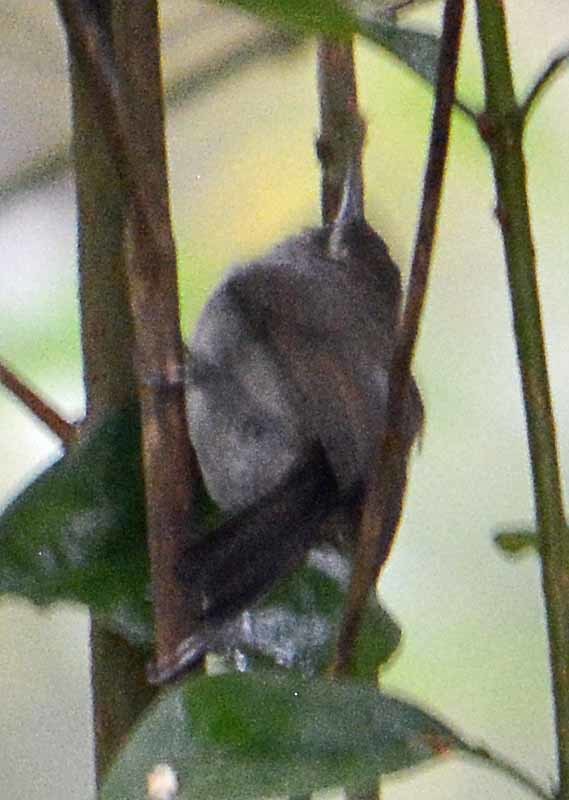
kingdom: Animalia
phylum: Chordata
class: Aves
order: Passeriformes
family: Troglodytidae
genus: Thryomanes
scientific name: Thryomanes bewickii
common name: Bewick's wren
